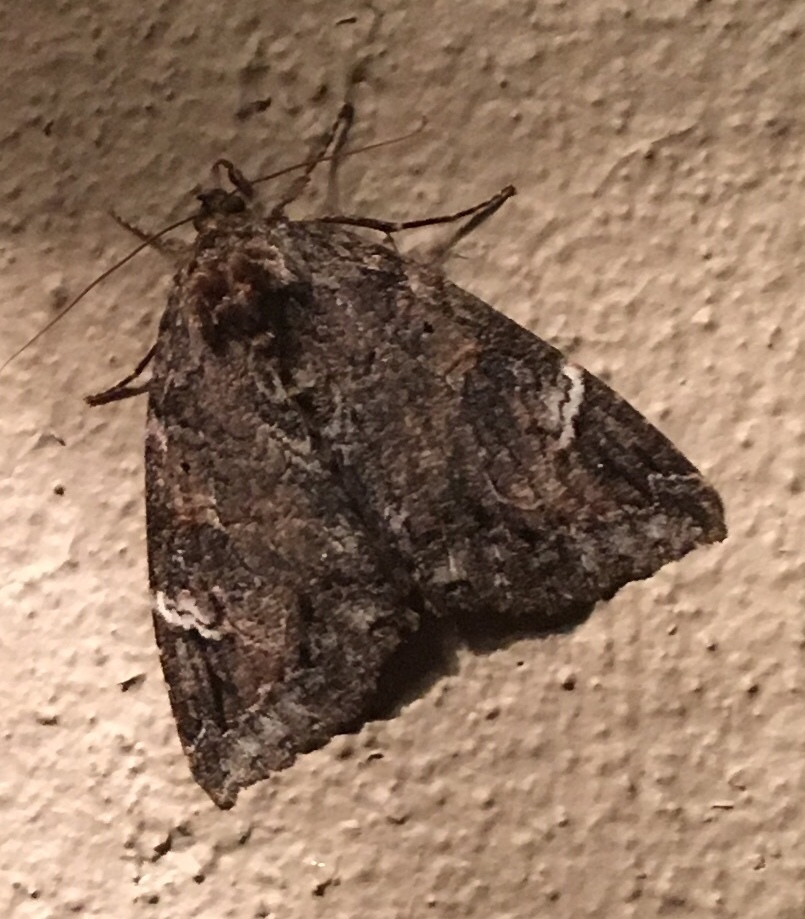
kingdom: Animalia
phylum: Arthropoda
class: Insecta
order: Lepidoptera
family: Erebidae
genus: Euparthenos
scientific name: Euparthenos nubilis
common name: Locust underwing
